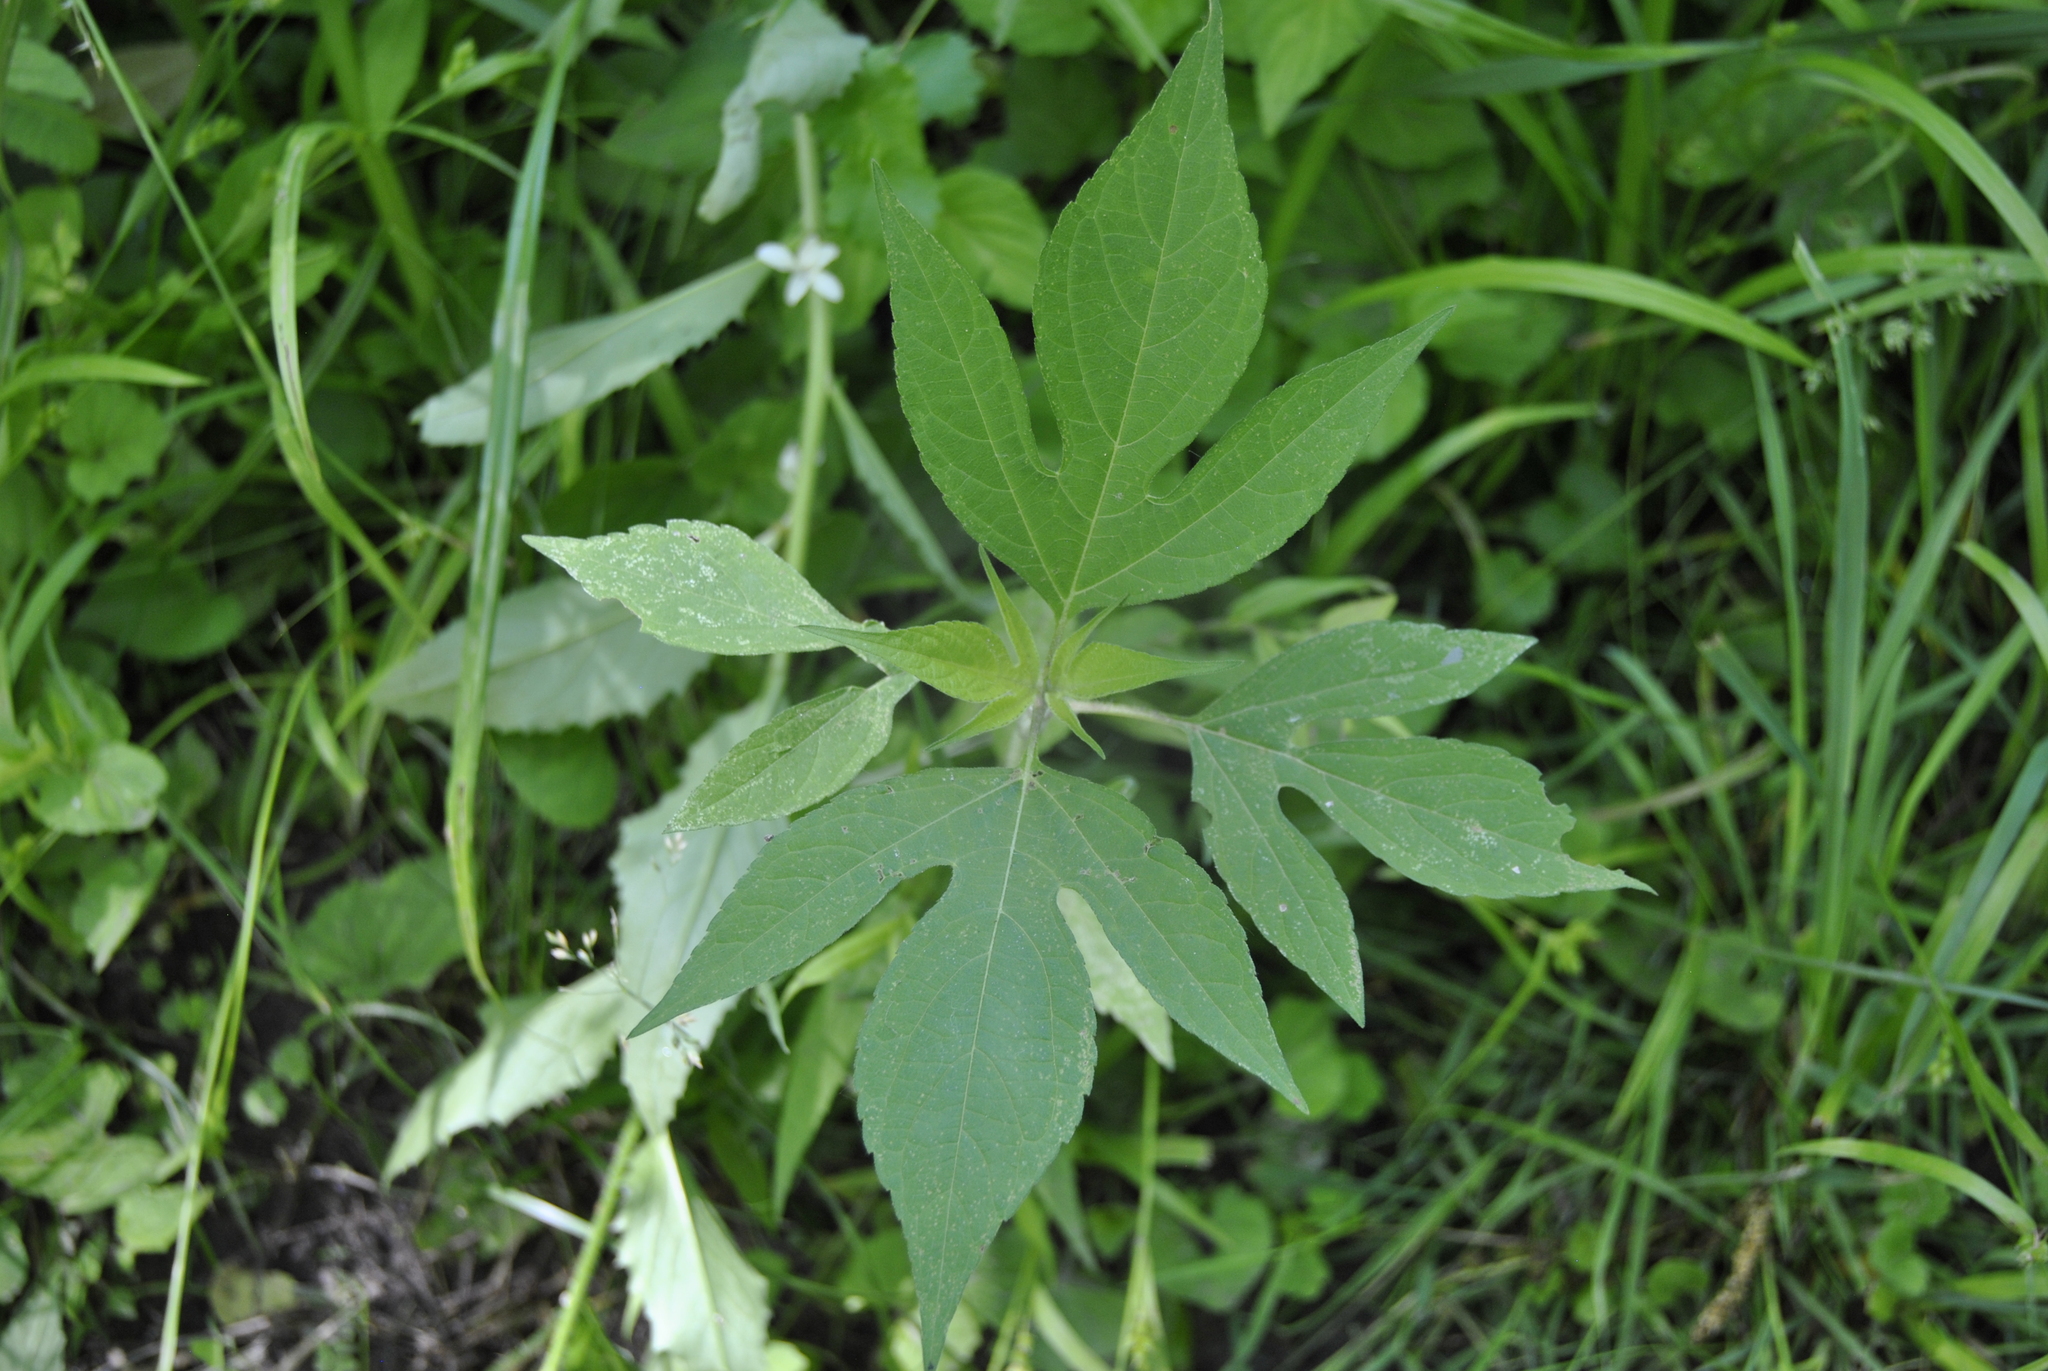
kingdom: Plantae
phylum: Tracheophyta
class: Magnoliopsida
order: Asterales
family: Asteraceae
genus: Ambrosia
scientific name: Ambrosia trifida
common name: Giant ragweed
